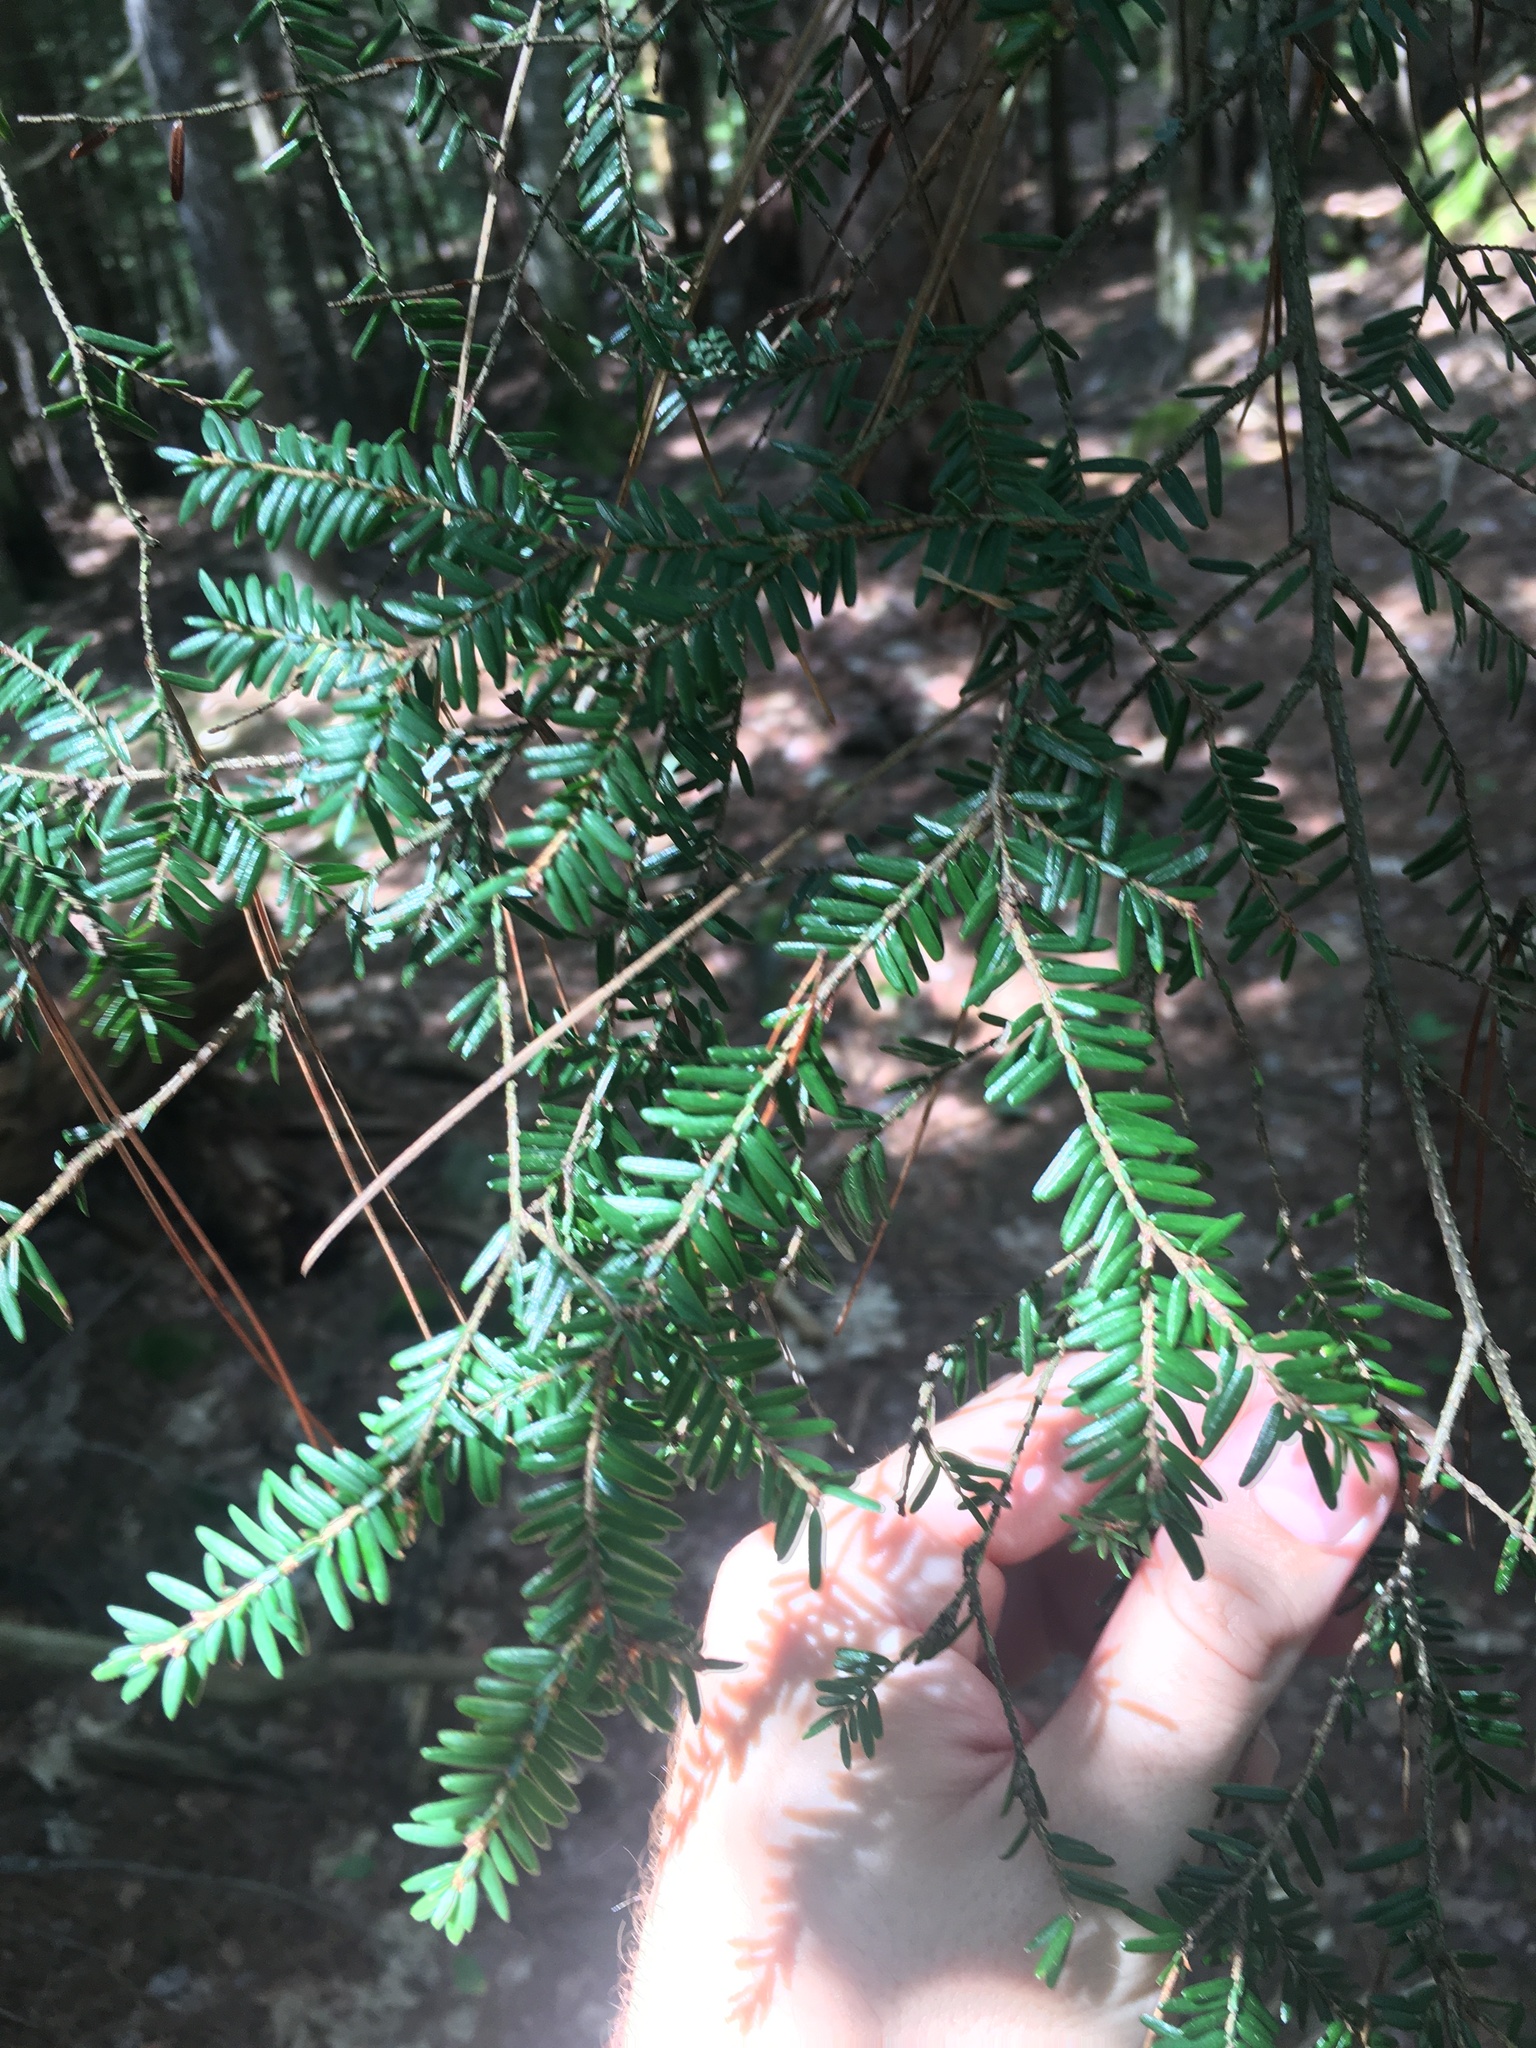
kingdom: Plantae
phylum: Tracheophyta
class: Pinopsida
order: Pinales
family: Pinaceae
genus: Tsuga
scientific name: Tsuga canadensis
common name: Eastern hemlock
